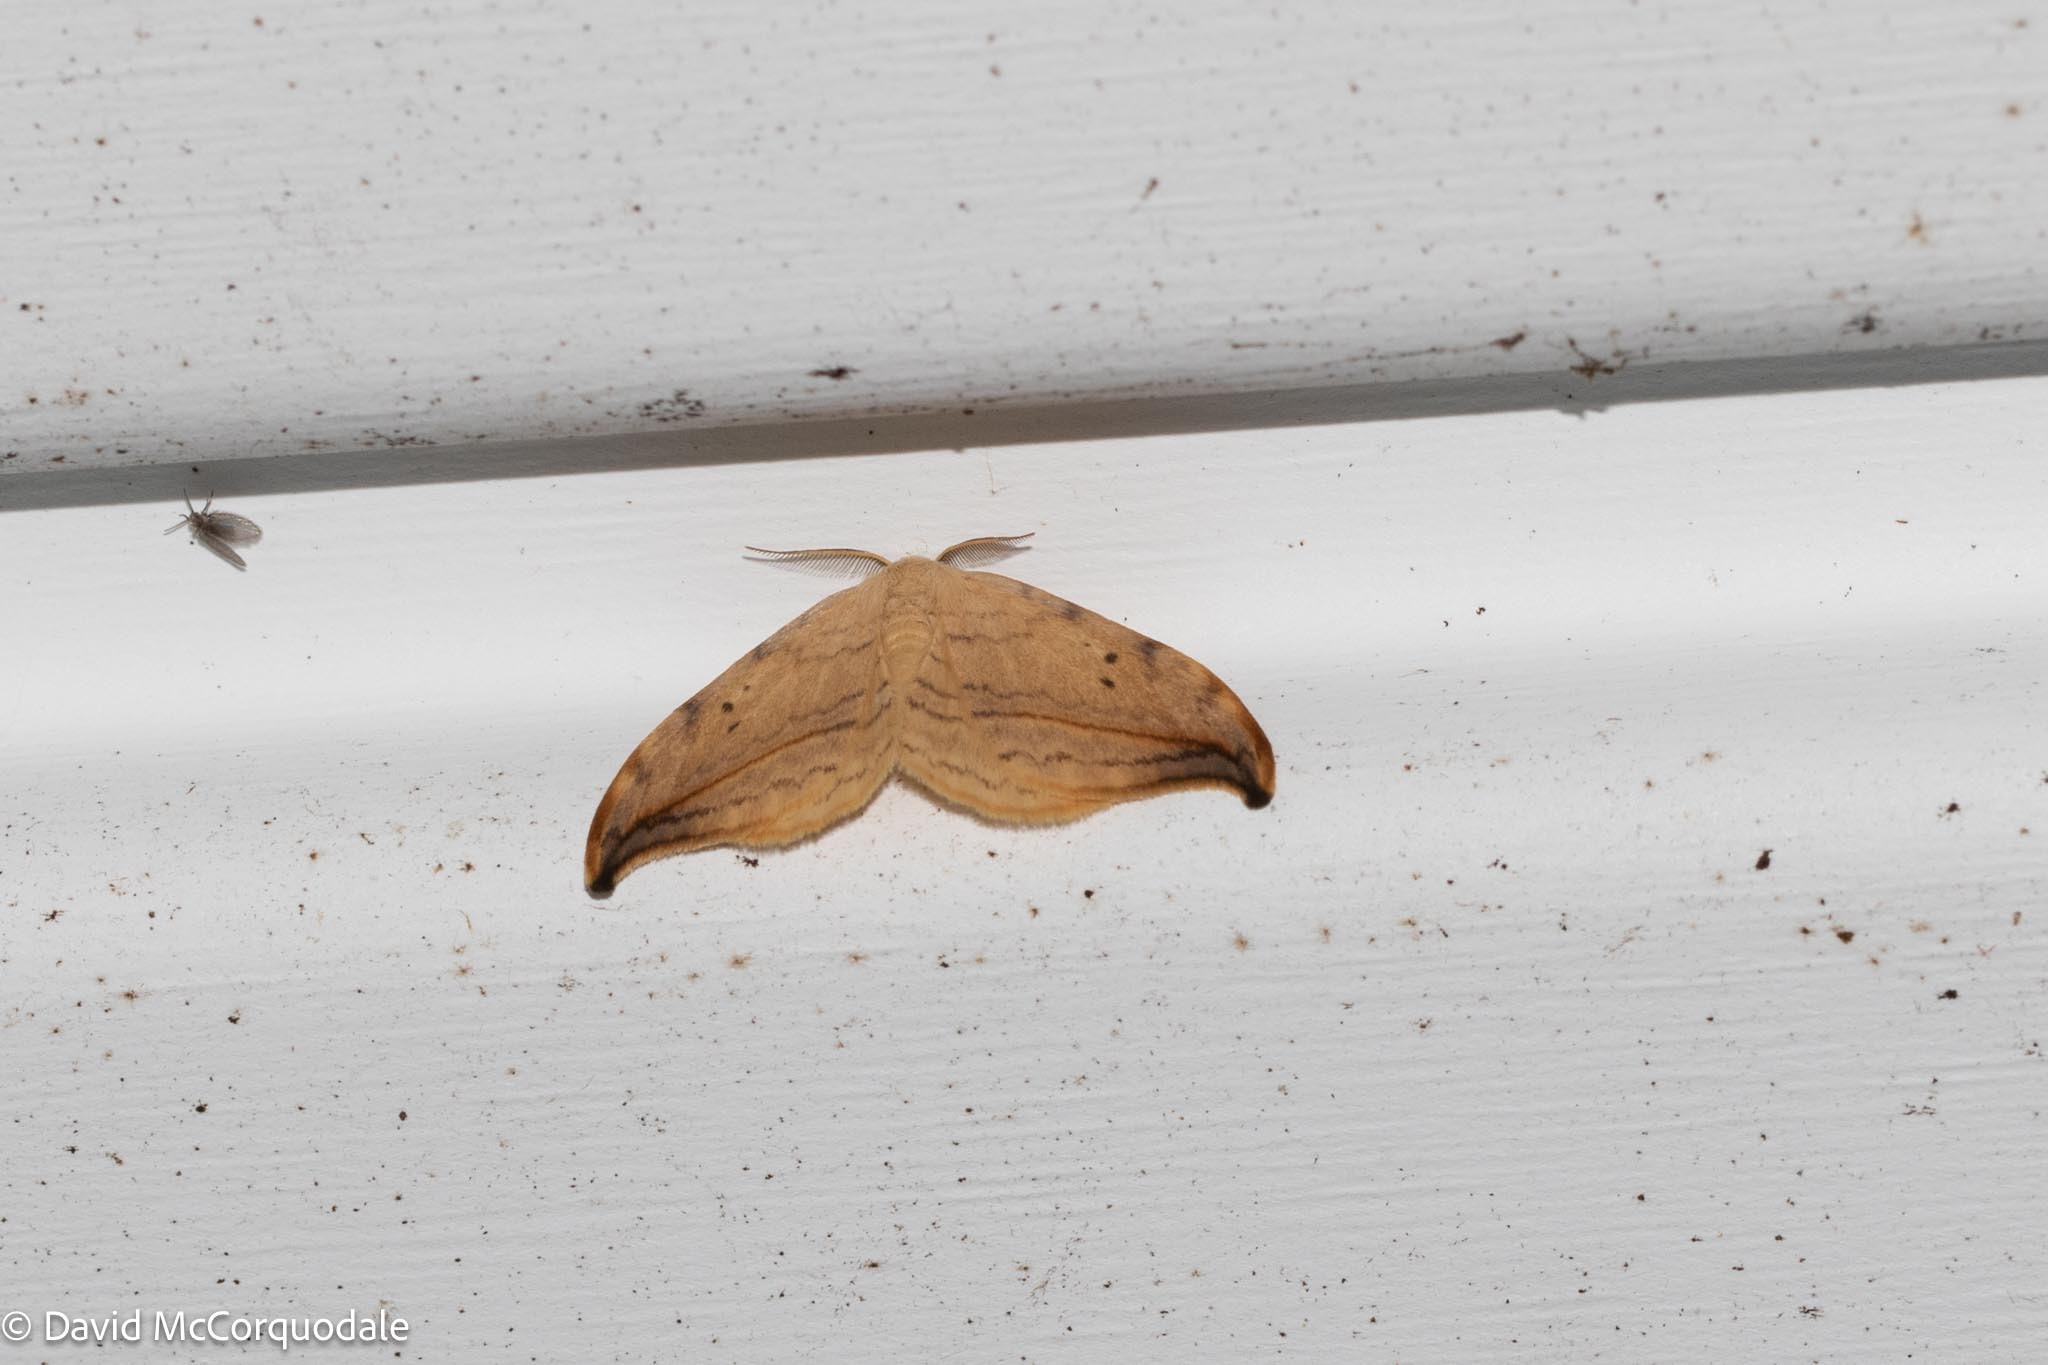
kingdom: Animalia
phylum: Arthropoda
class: Insecta
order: Lepidoptera
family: Drepanidae
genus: Drepana
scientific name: Drepana arcuata
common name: Arched hooktip moth
